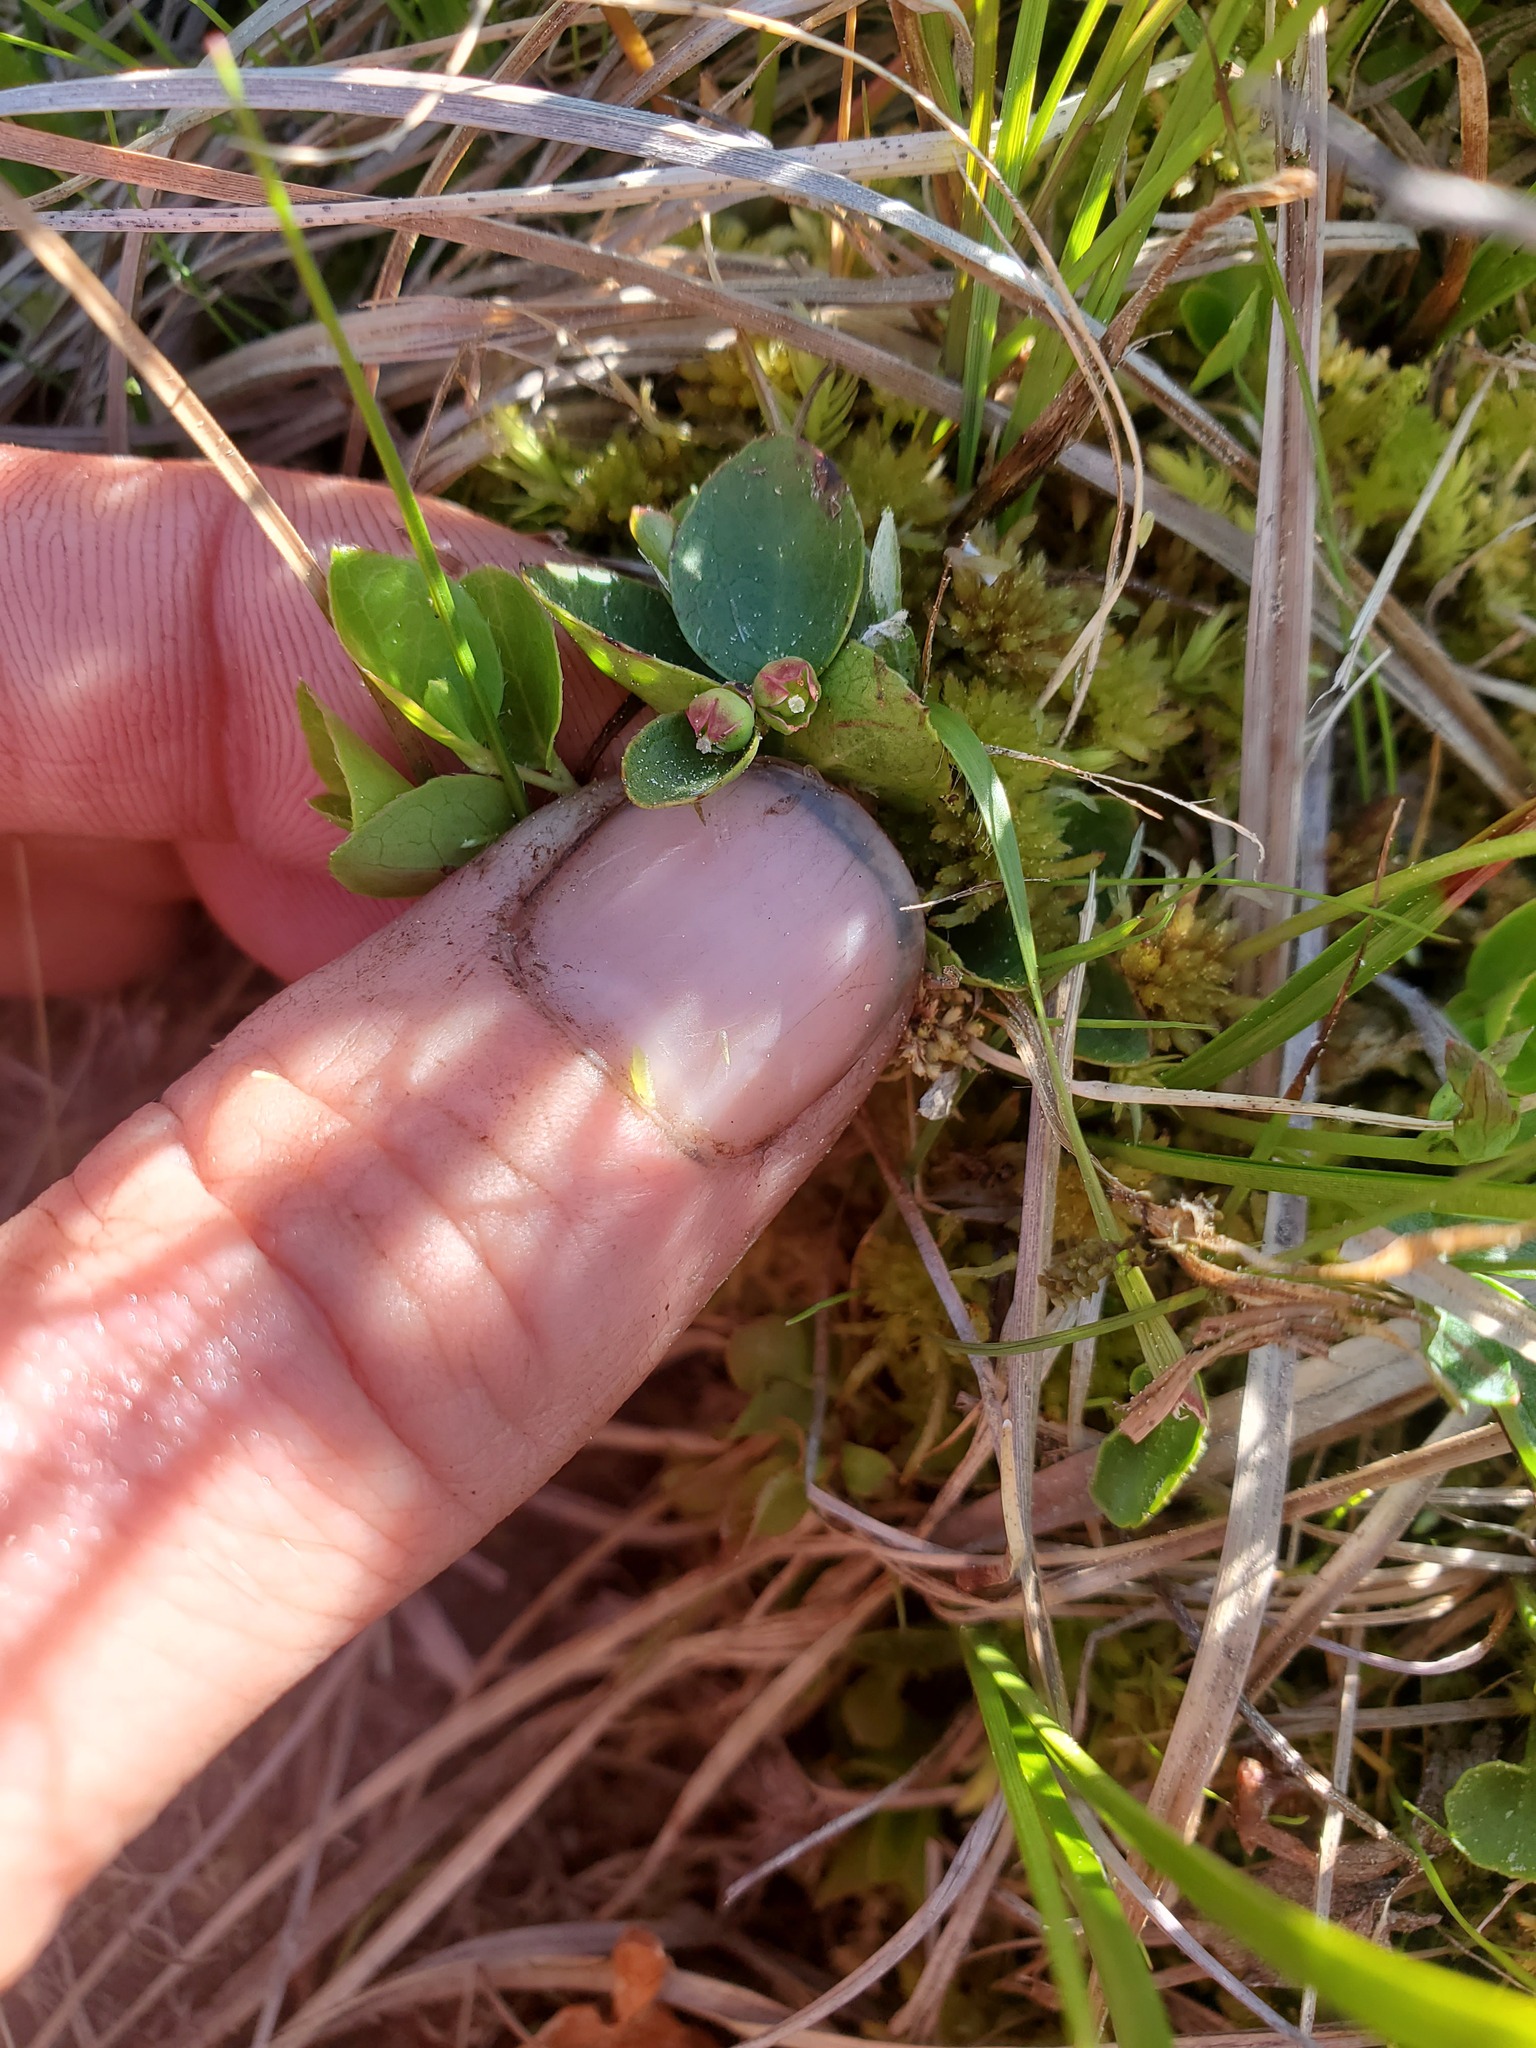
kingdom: Plantae
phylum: Tracheophyta
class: Magnoliopsida
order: Ericales
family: Ericaceae
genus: Gaultheria
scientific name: Gaultheria humifusa
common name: Alpine wintergreen
